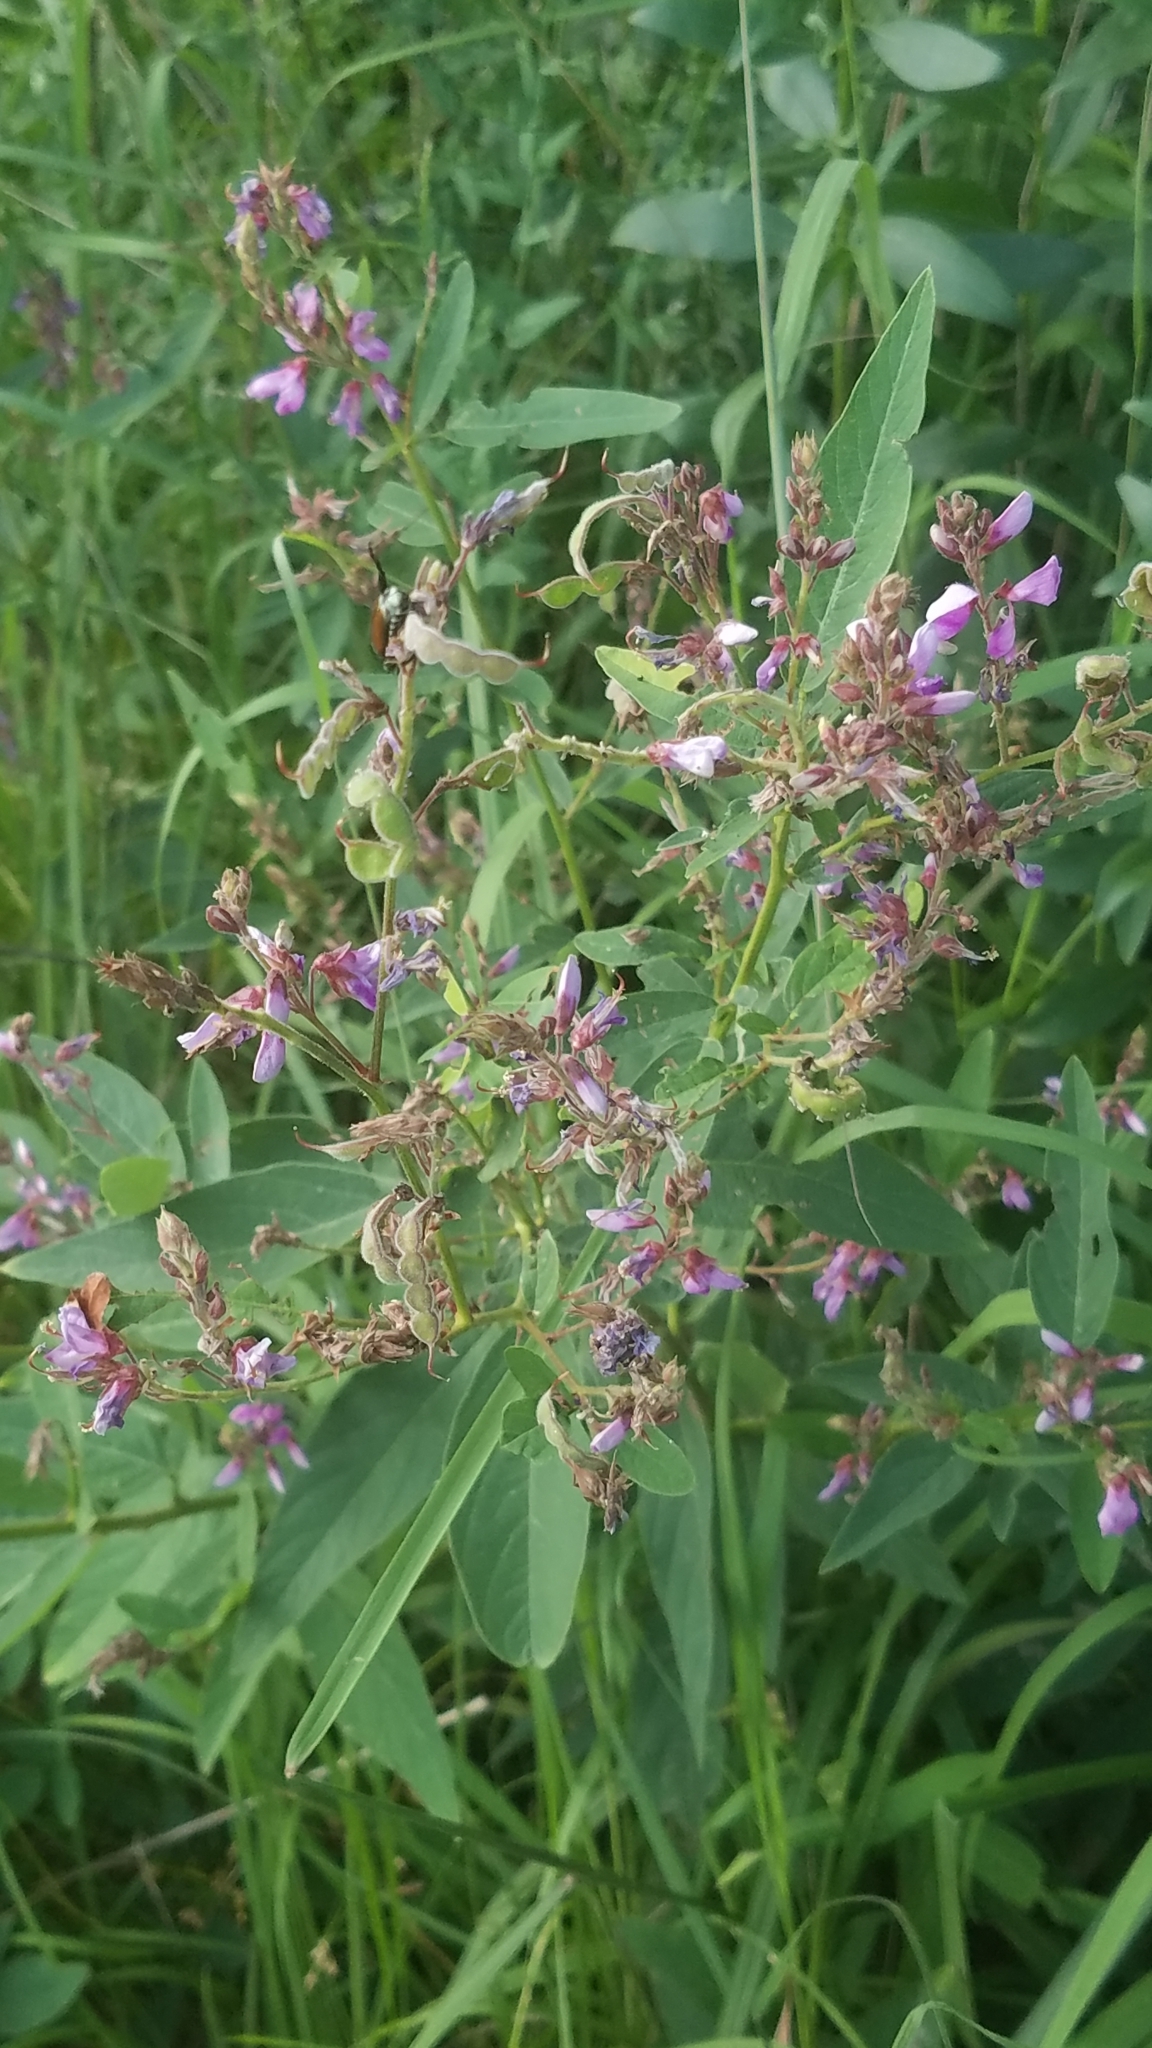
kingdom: Plantae
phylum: Tracheophyta
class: Magnoliopsida
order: Fabales
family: Fabaceae
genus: Desmodium
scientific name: Desmodium canadense
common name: Canada tick-trefoil
